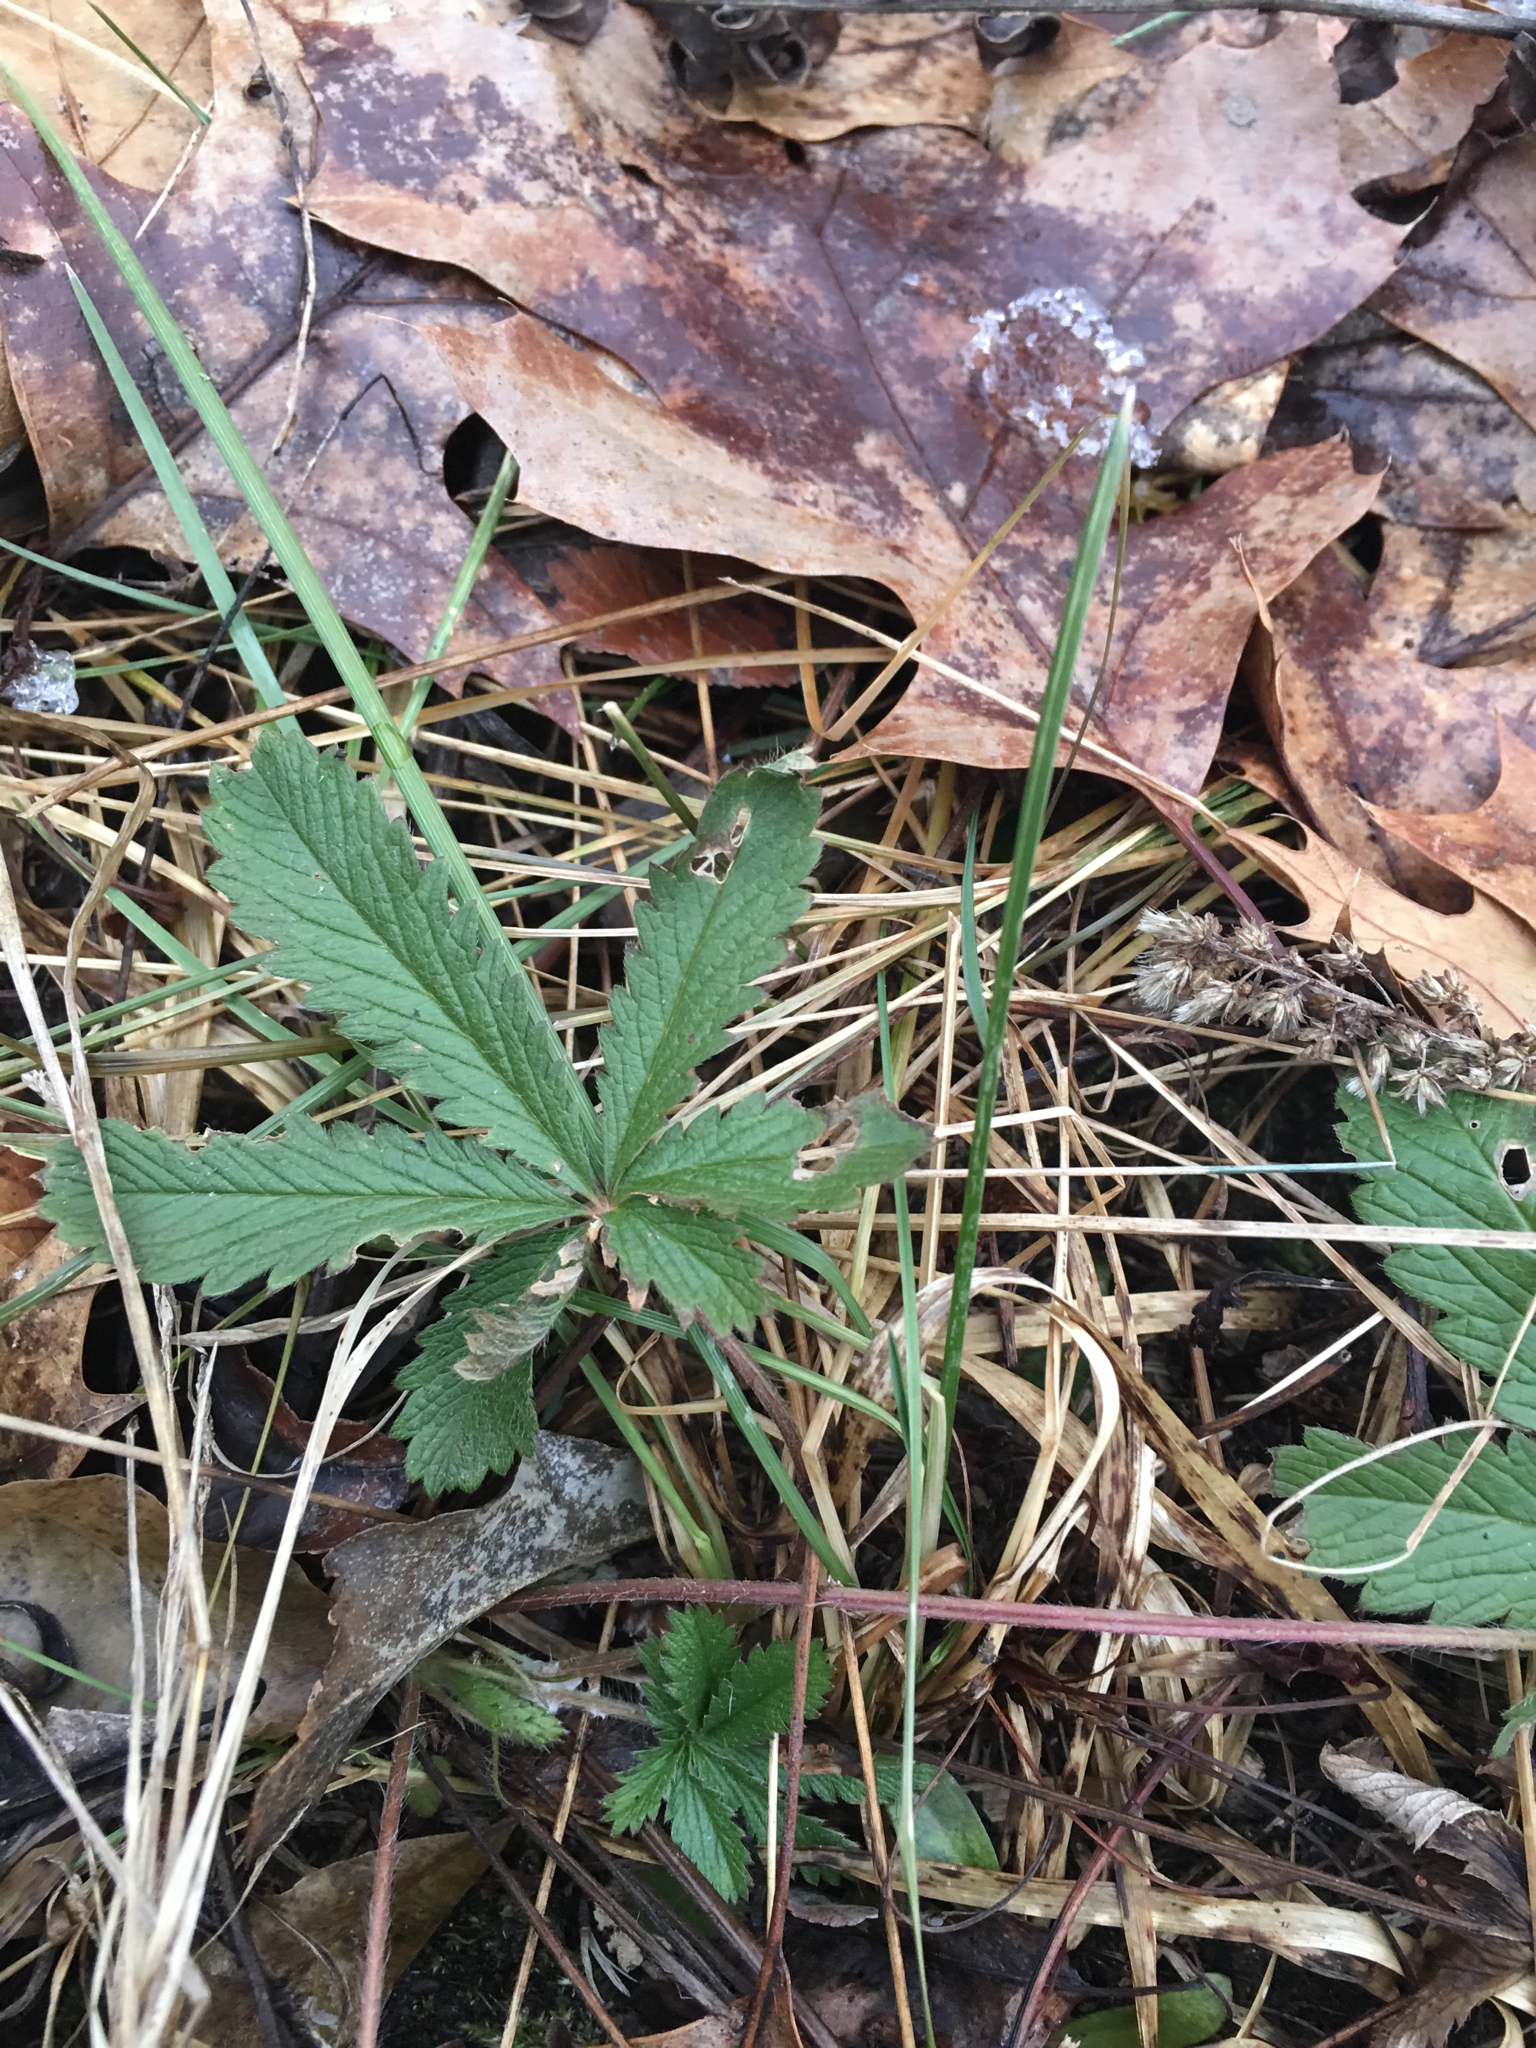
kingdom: Plantae
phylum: Tracheophyta
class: Magnoliopsida
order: Rosales
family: Rosaceae
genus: Potentilla
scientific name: Potentilla simplex
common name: Old field cinquefoil
